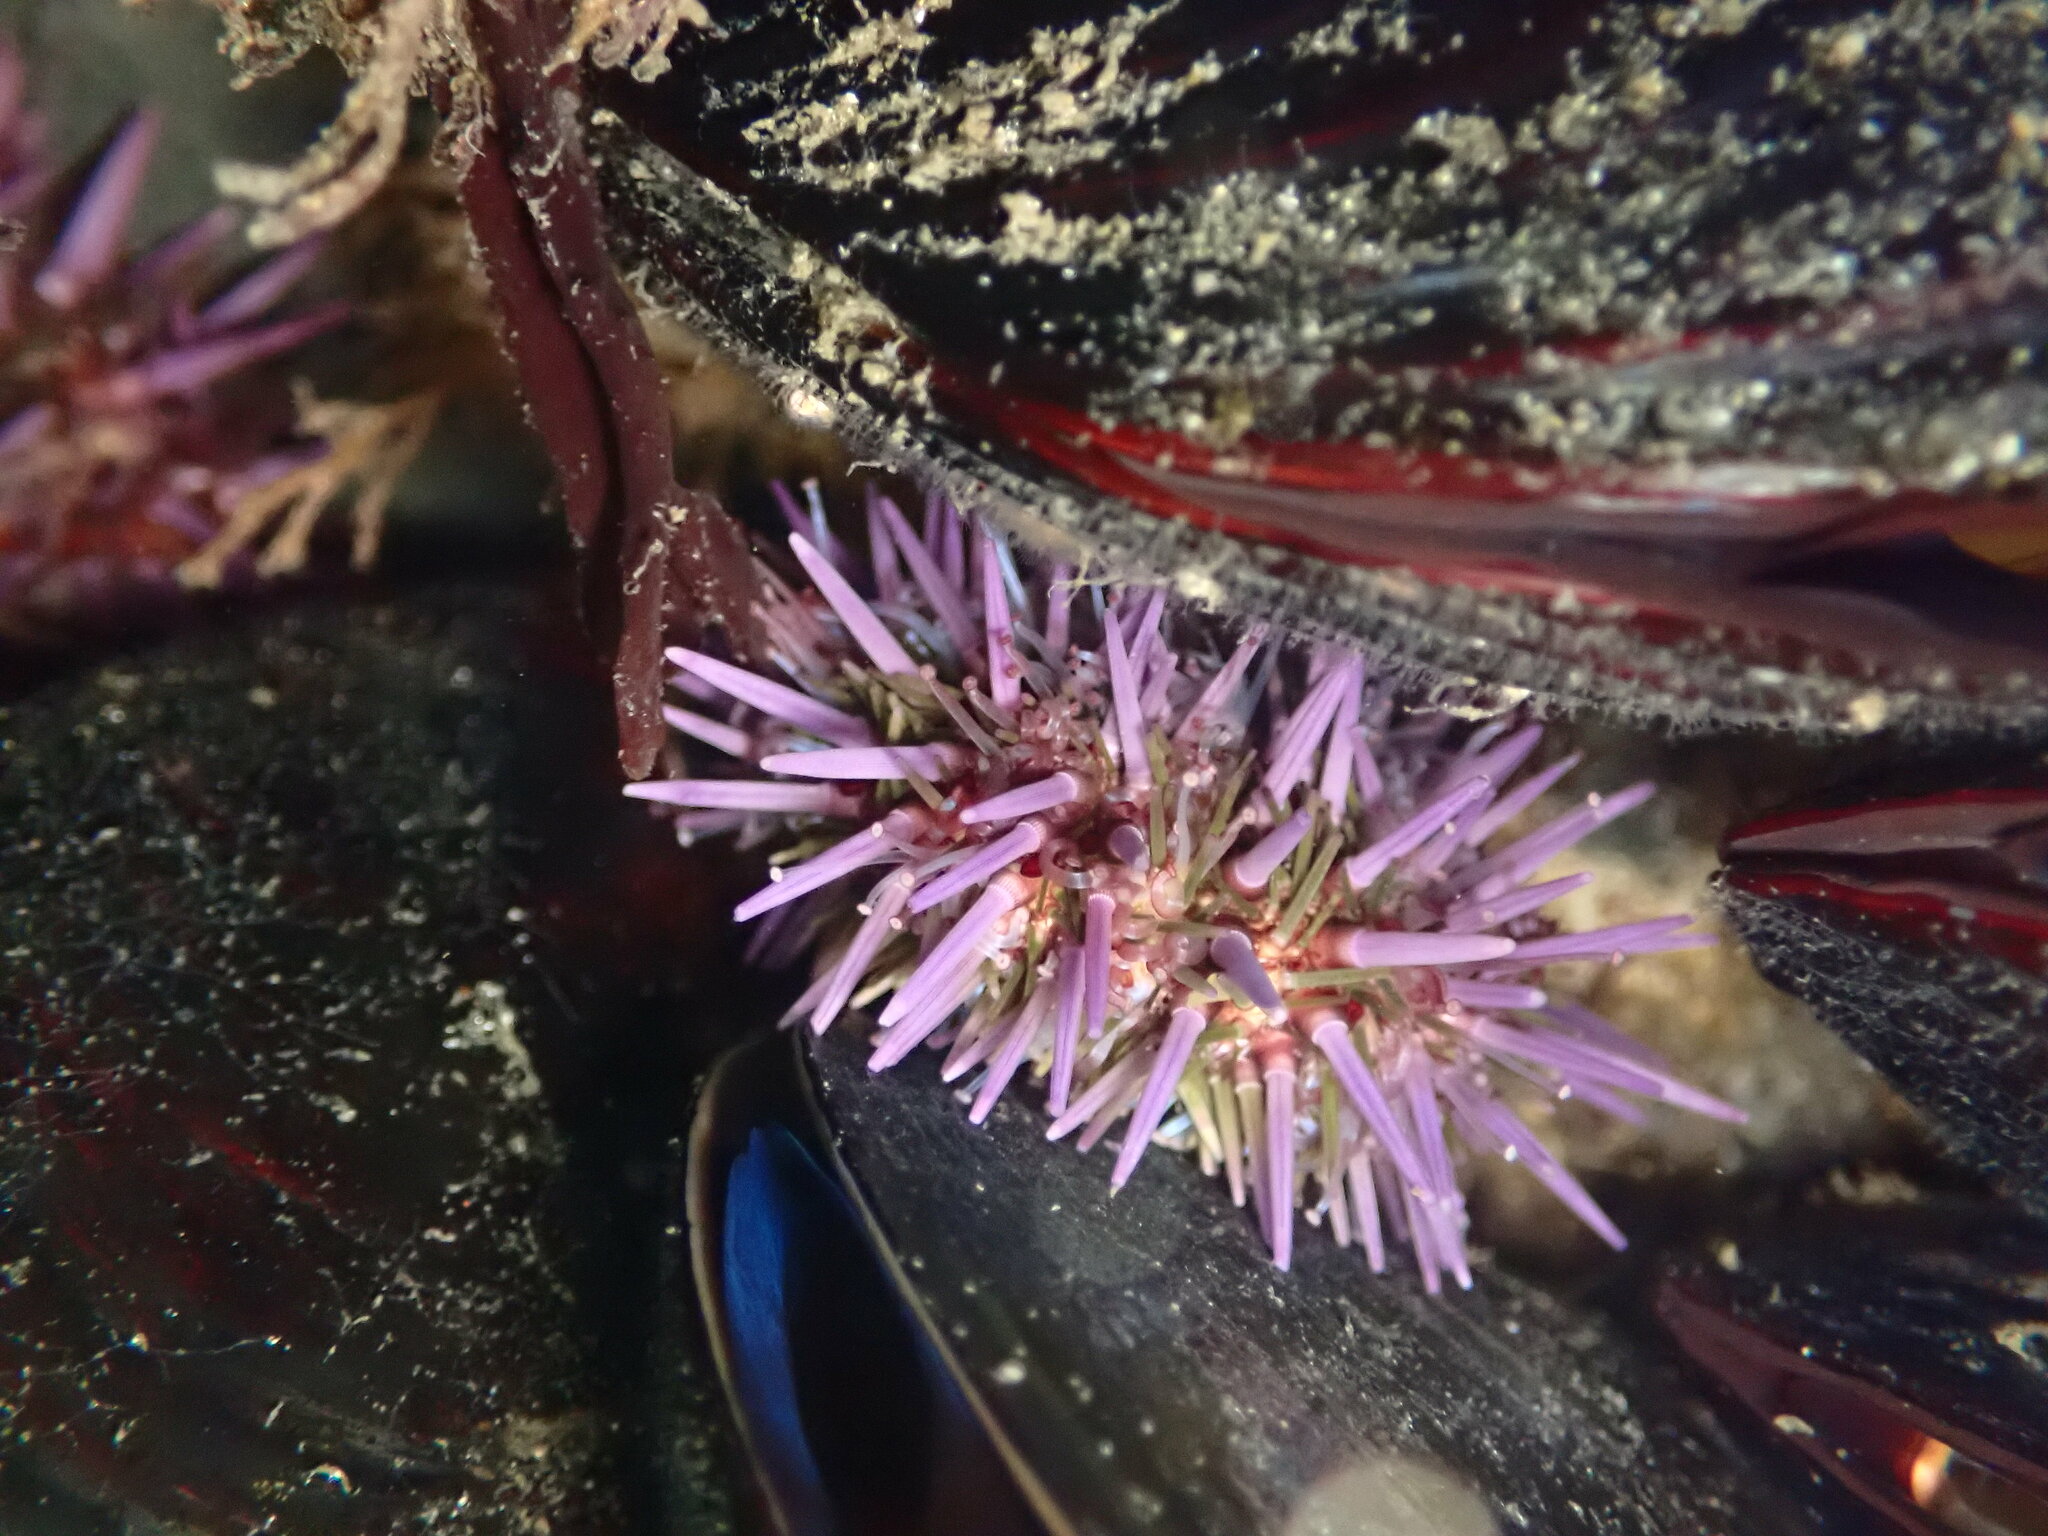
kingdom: Animalia
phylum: Echinodermata
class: Echinoidea
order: Camarodonta
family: Strongylocentrotidae
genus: Strongylocentrotus
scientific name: Strongylocentrotus purpuratus
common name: Purple sea urchin
